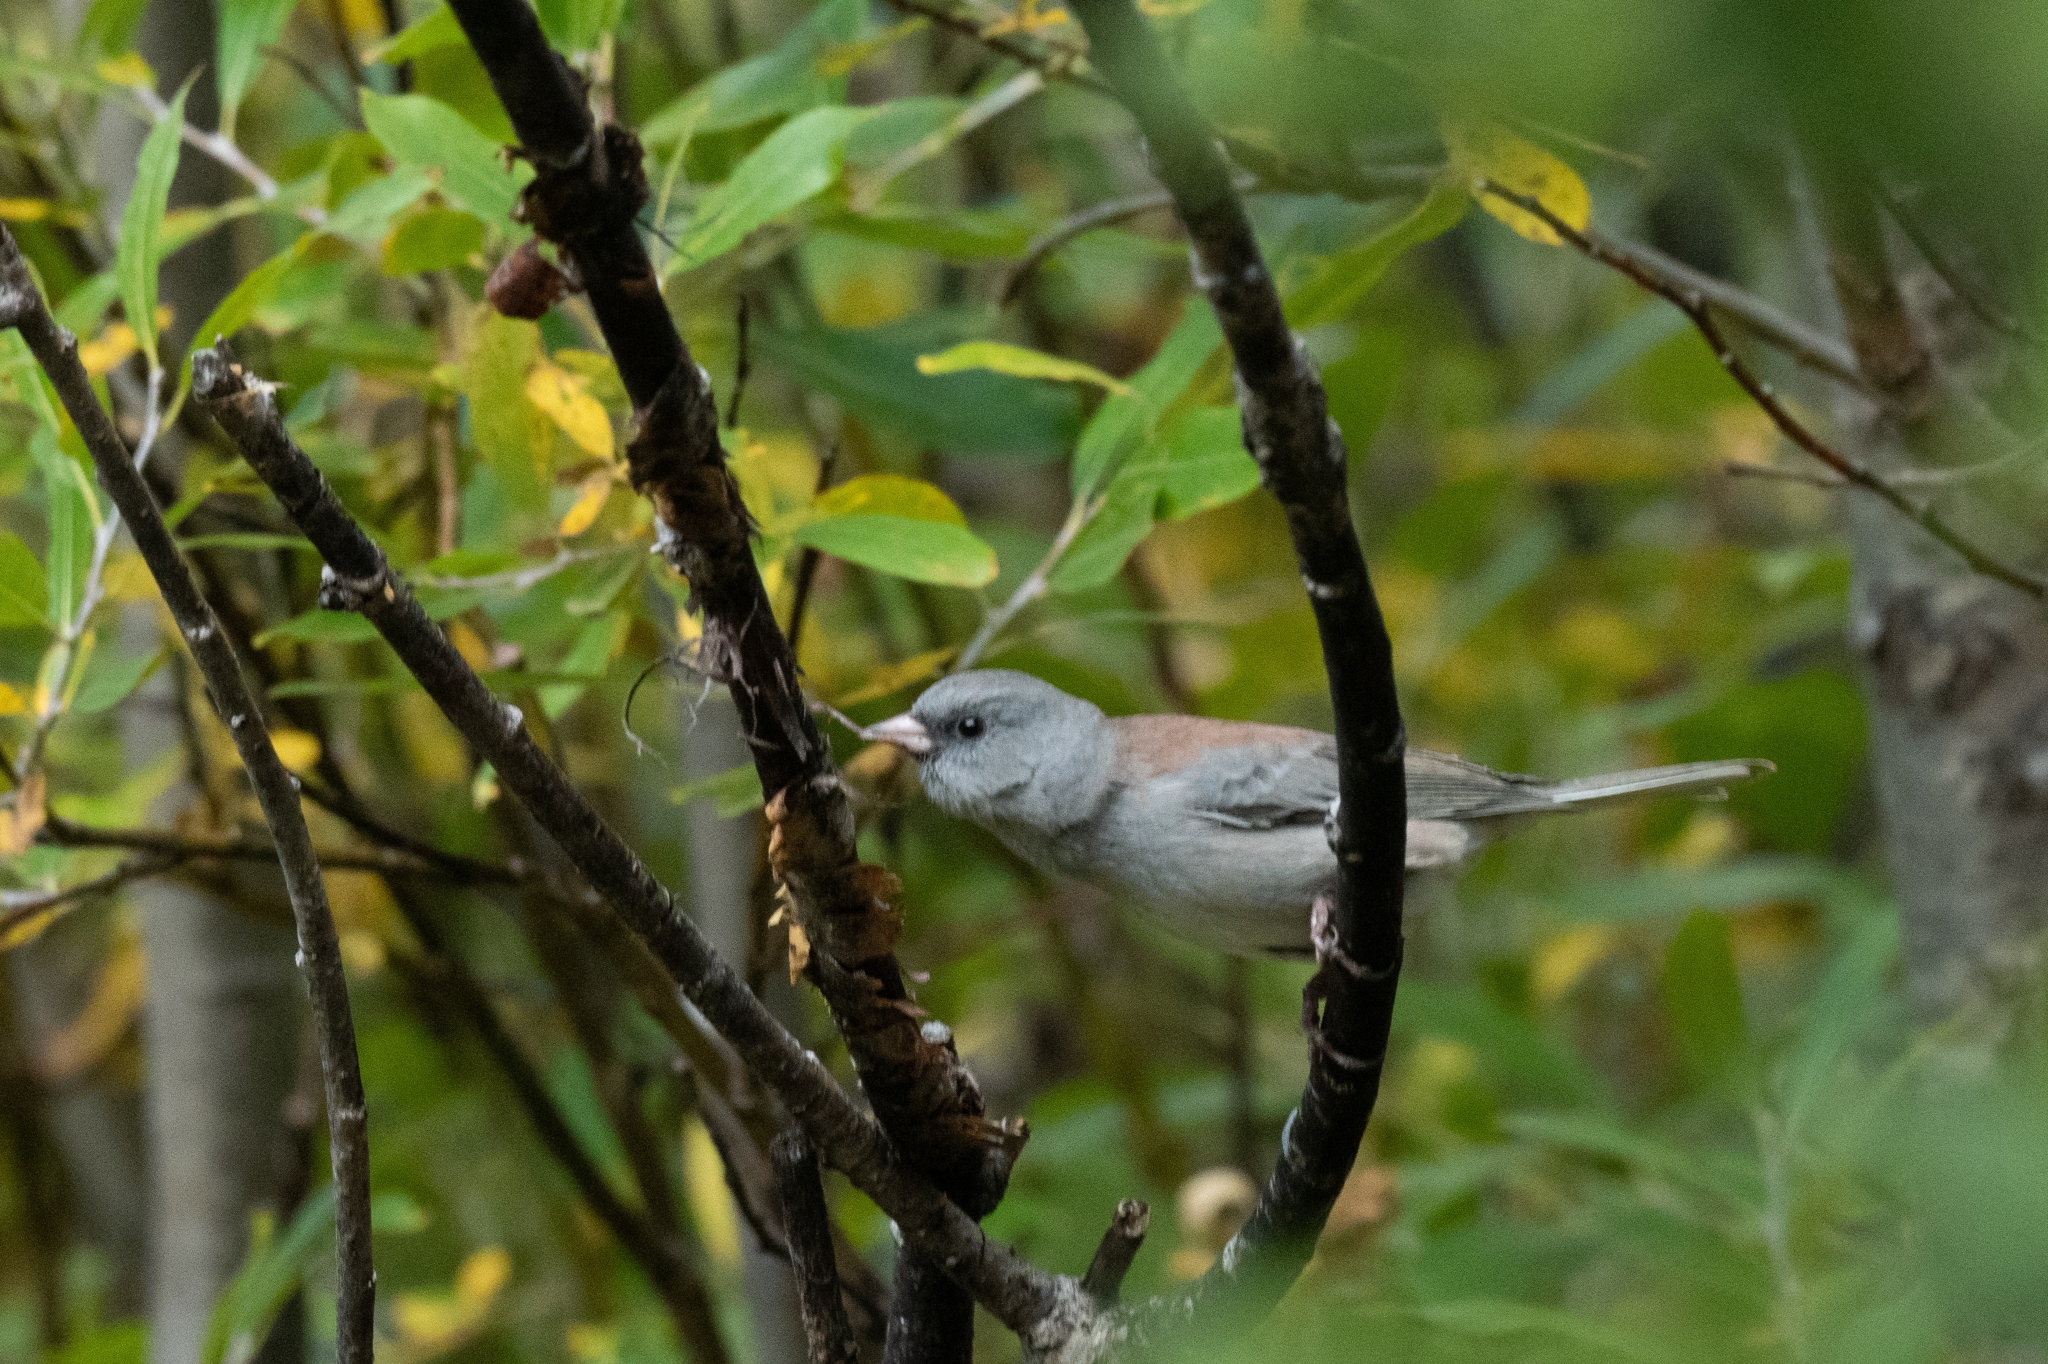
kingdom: Animalia
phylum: Chordata
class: Aves
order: Passeriformes
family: Passerellidae
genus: Junco
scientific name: Junco hyemalis
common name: Dark-eyed junco
